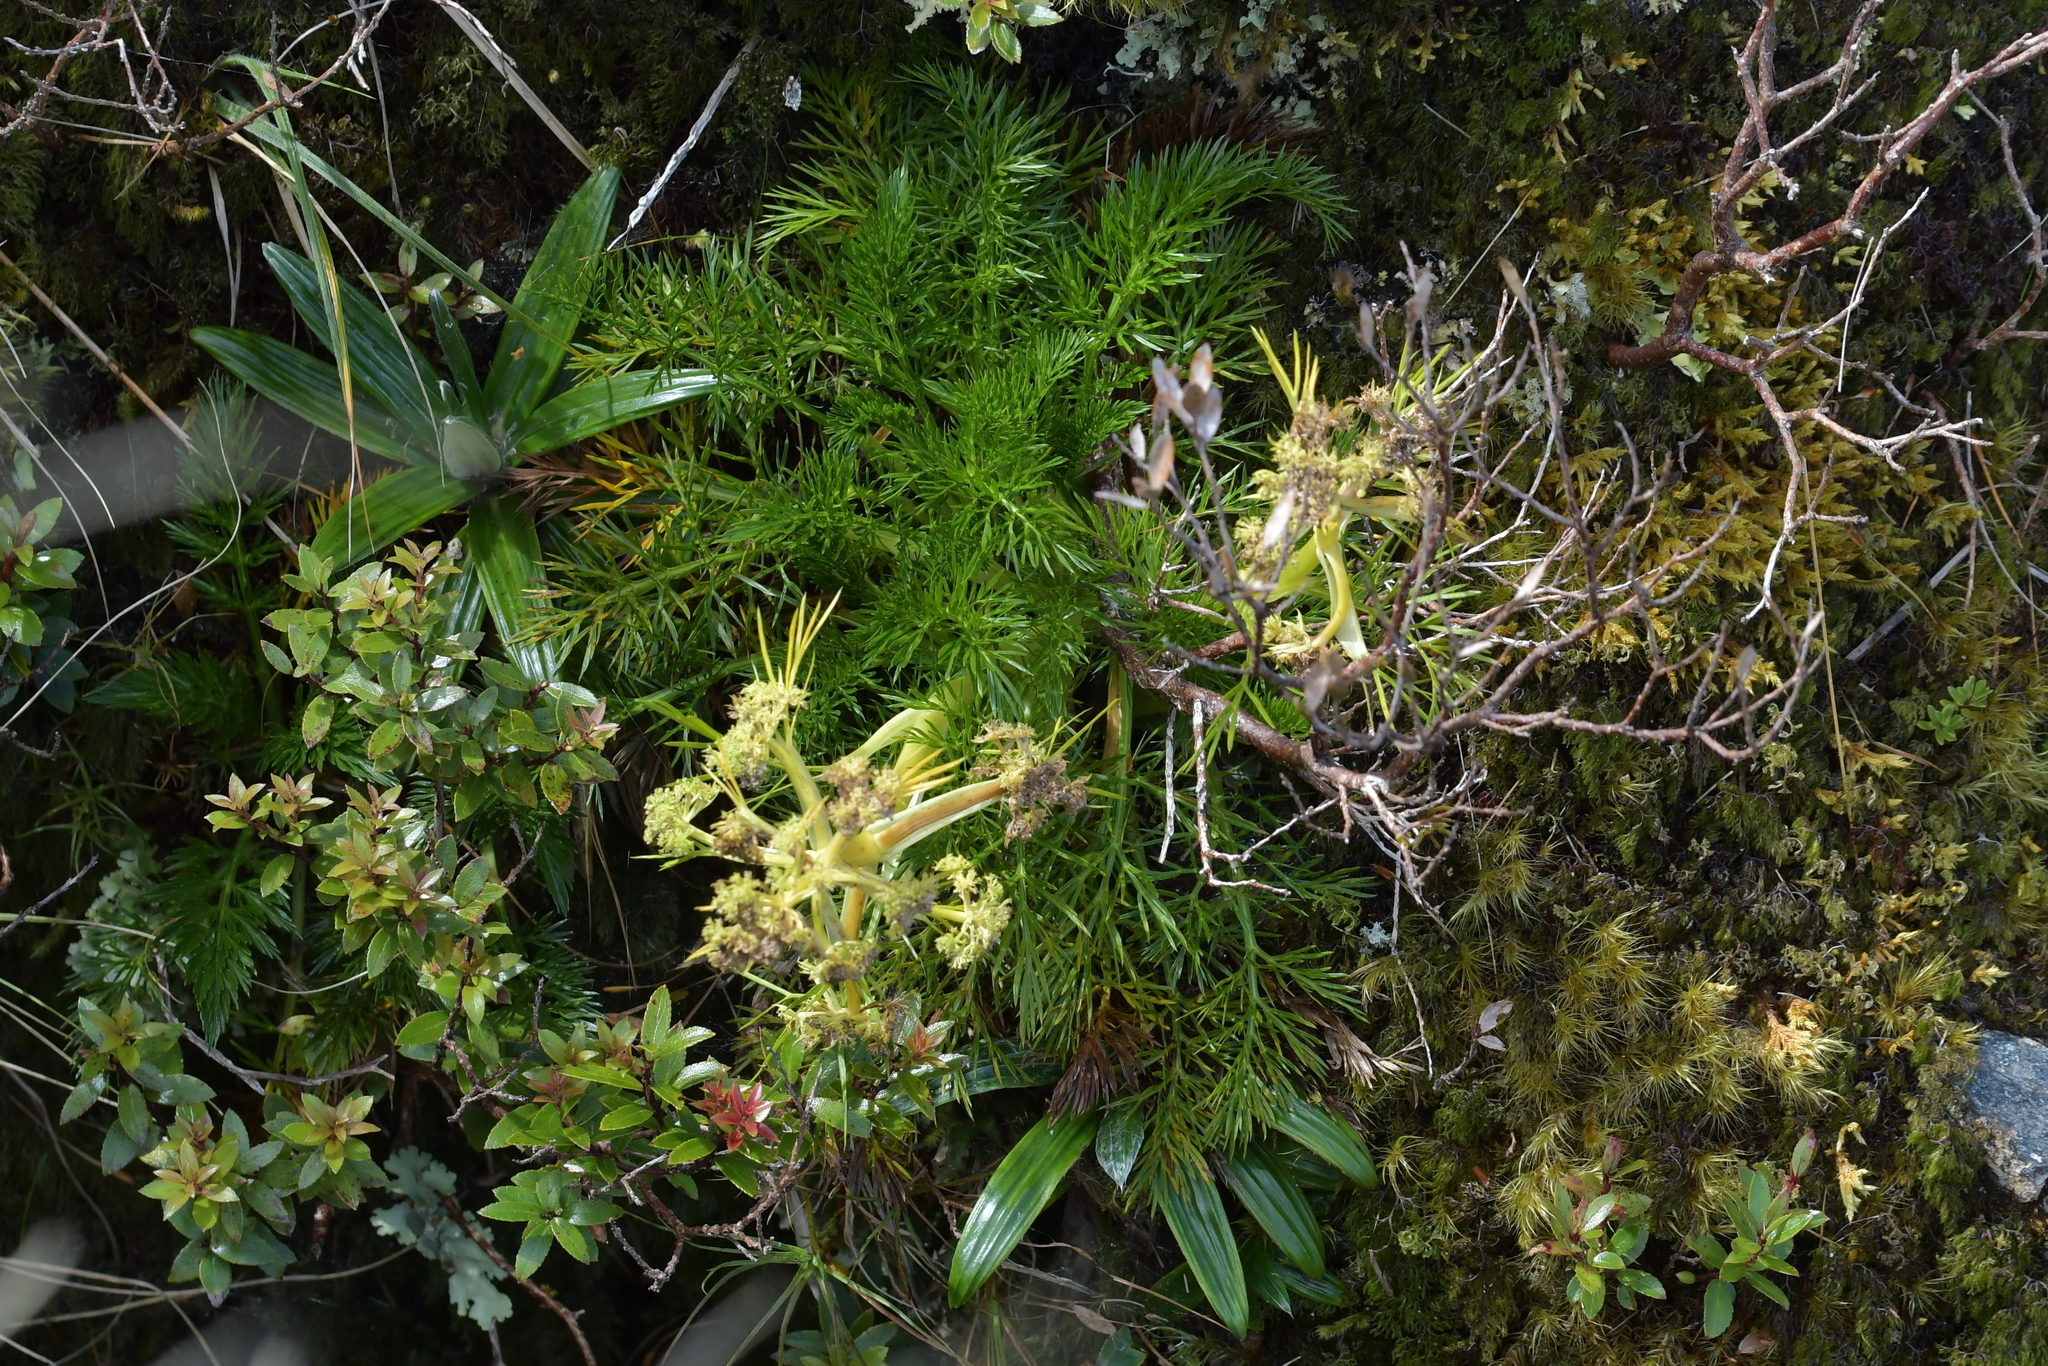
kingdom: Plantae
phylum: Tracheophyta
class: Magnoliopsida
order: Apiales
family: Apiaceae
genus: Aciphylla
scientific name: Aciphylla dissecta
